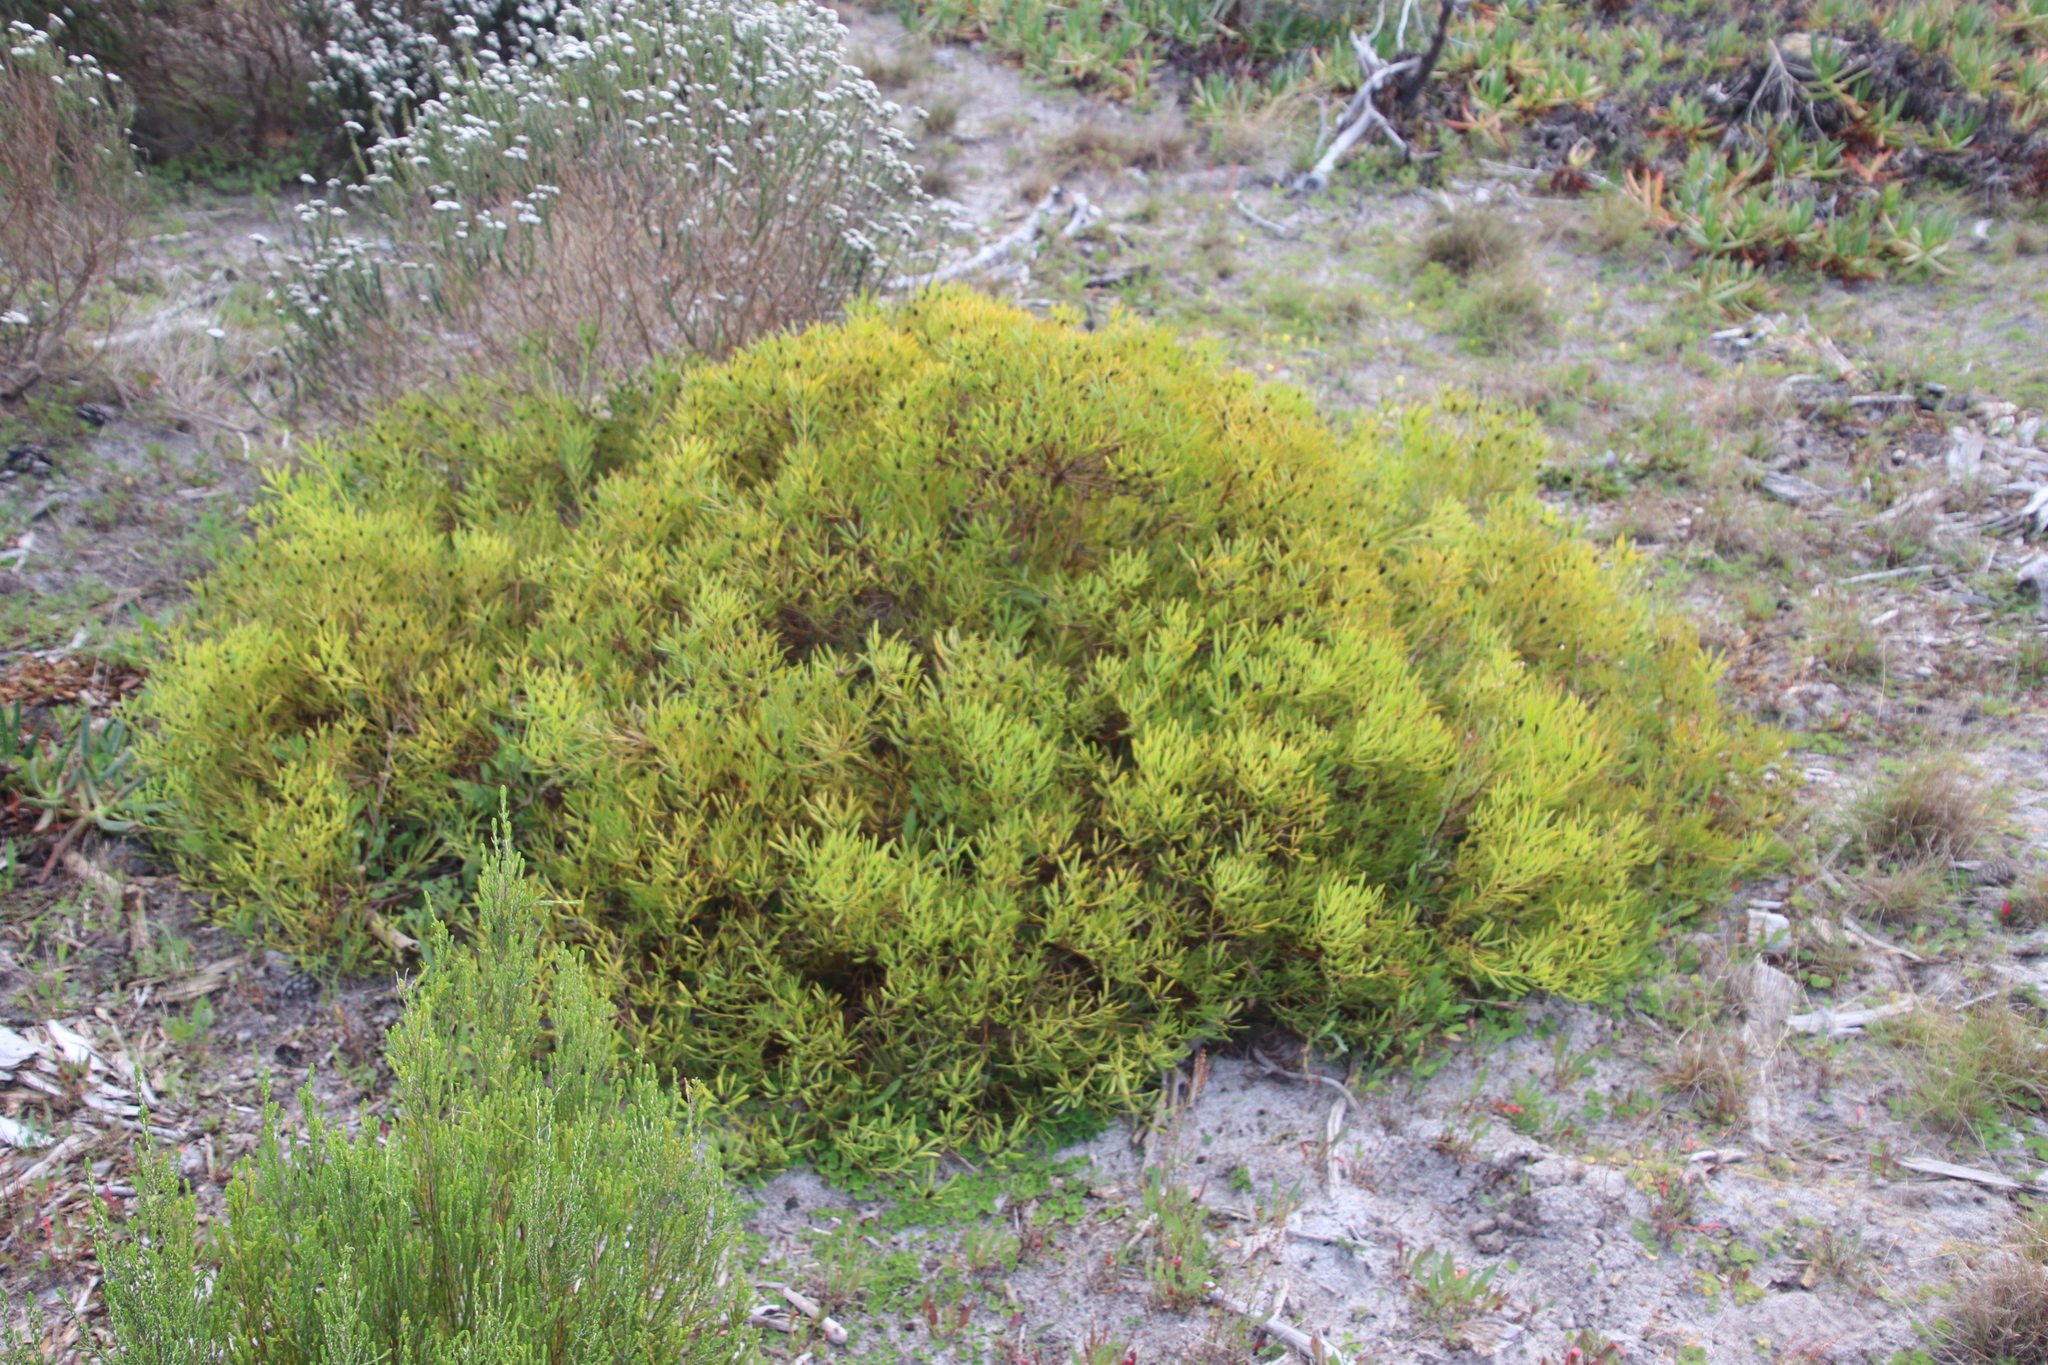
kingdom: Plantae
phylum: Tracheophyta
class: Magnoliopsida
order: Proteales
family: Proteaceae
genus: Leucadendron
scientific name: Leucadendron salignum
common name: Common sunshine conebush
